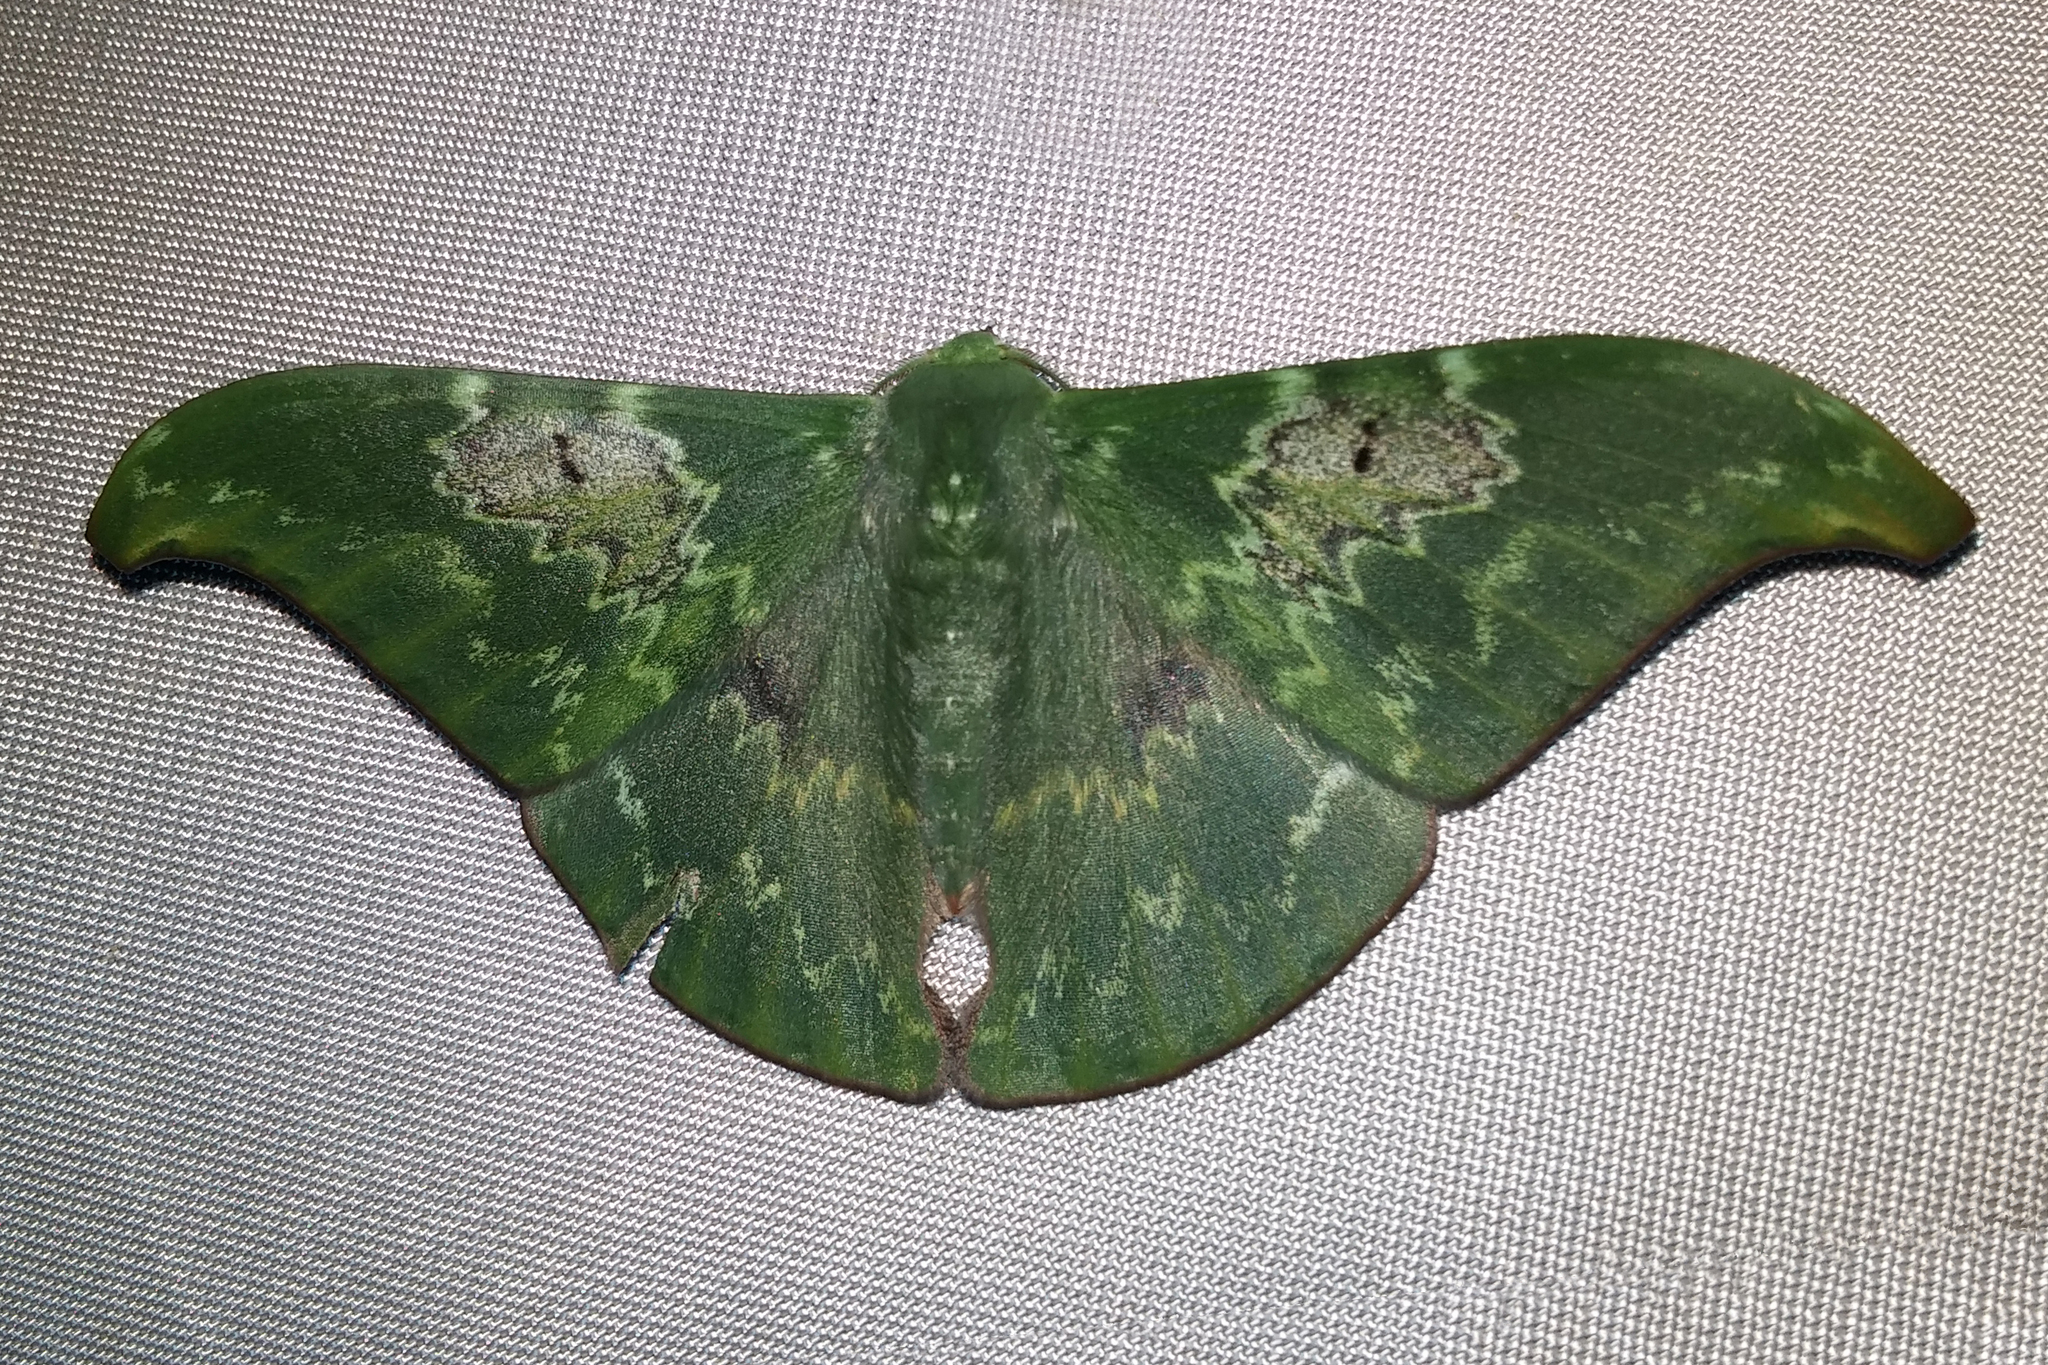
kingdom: Animalia
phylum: Arthropoda
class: Insecta
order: Lepidoptera
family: Geometridae
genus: Tanaorhinus
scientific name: Tanaorhinus unipuncta
